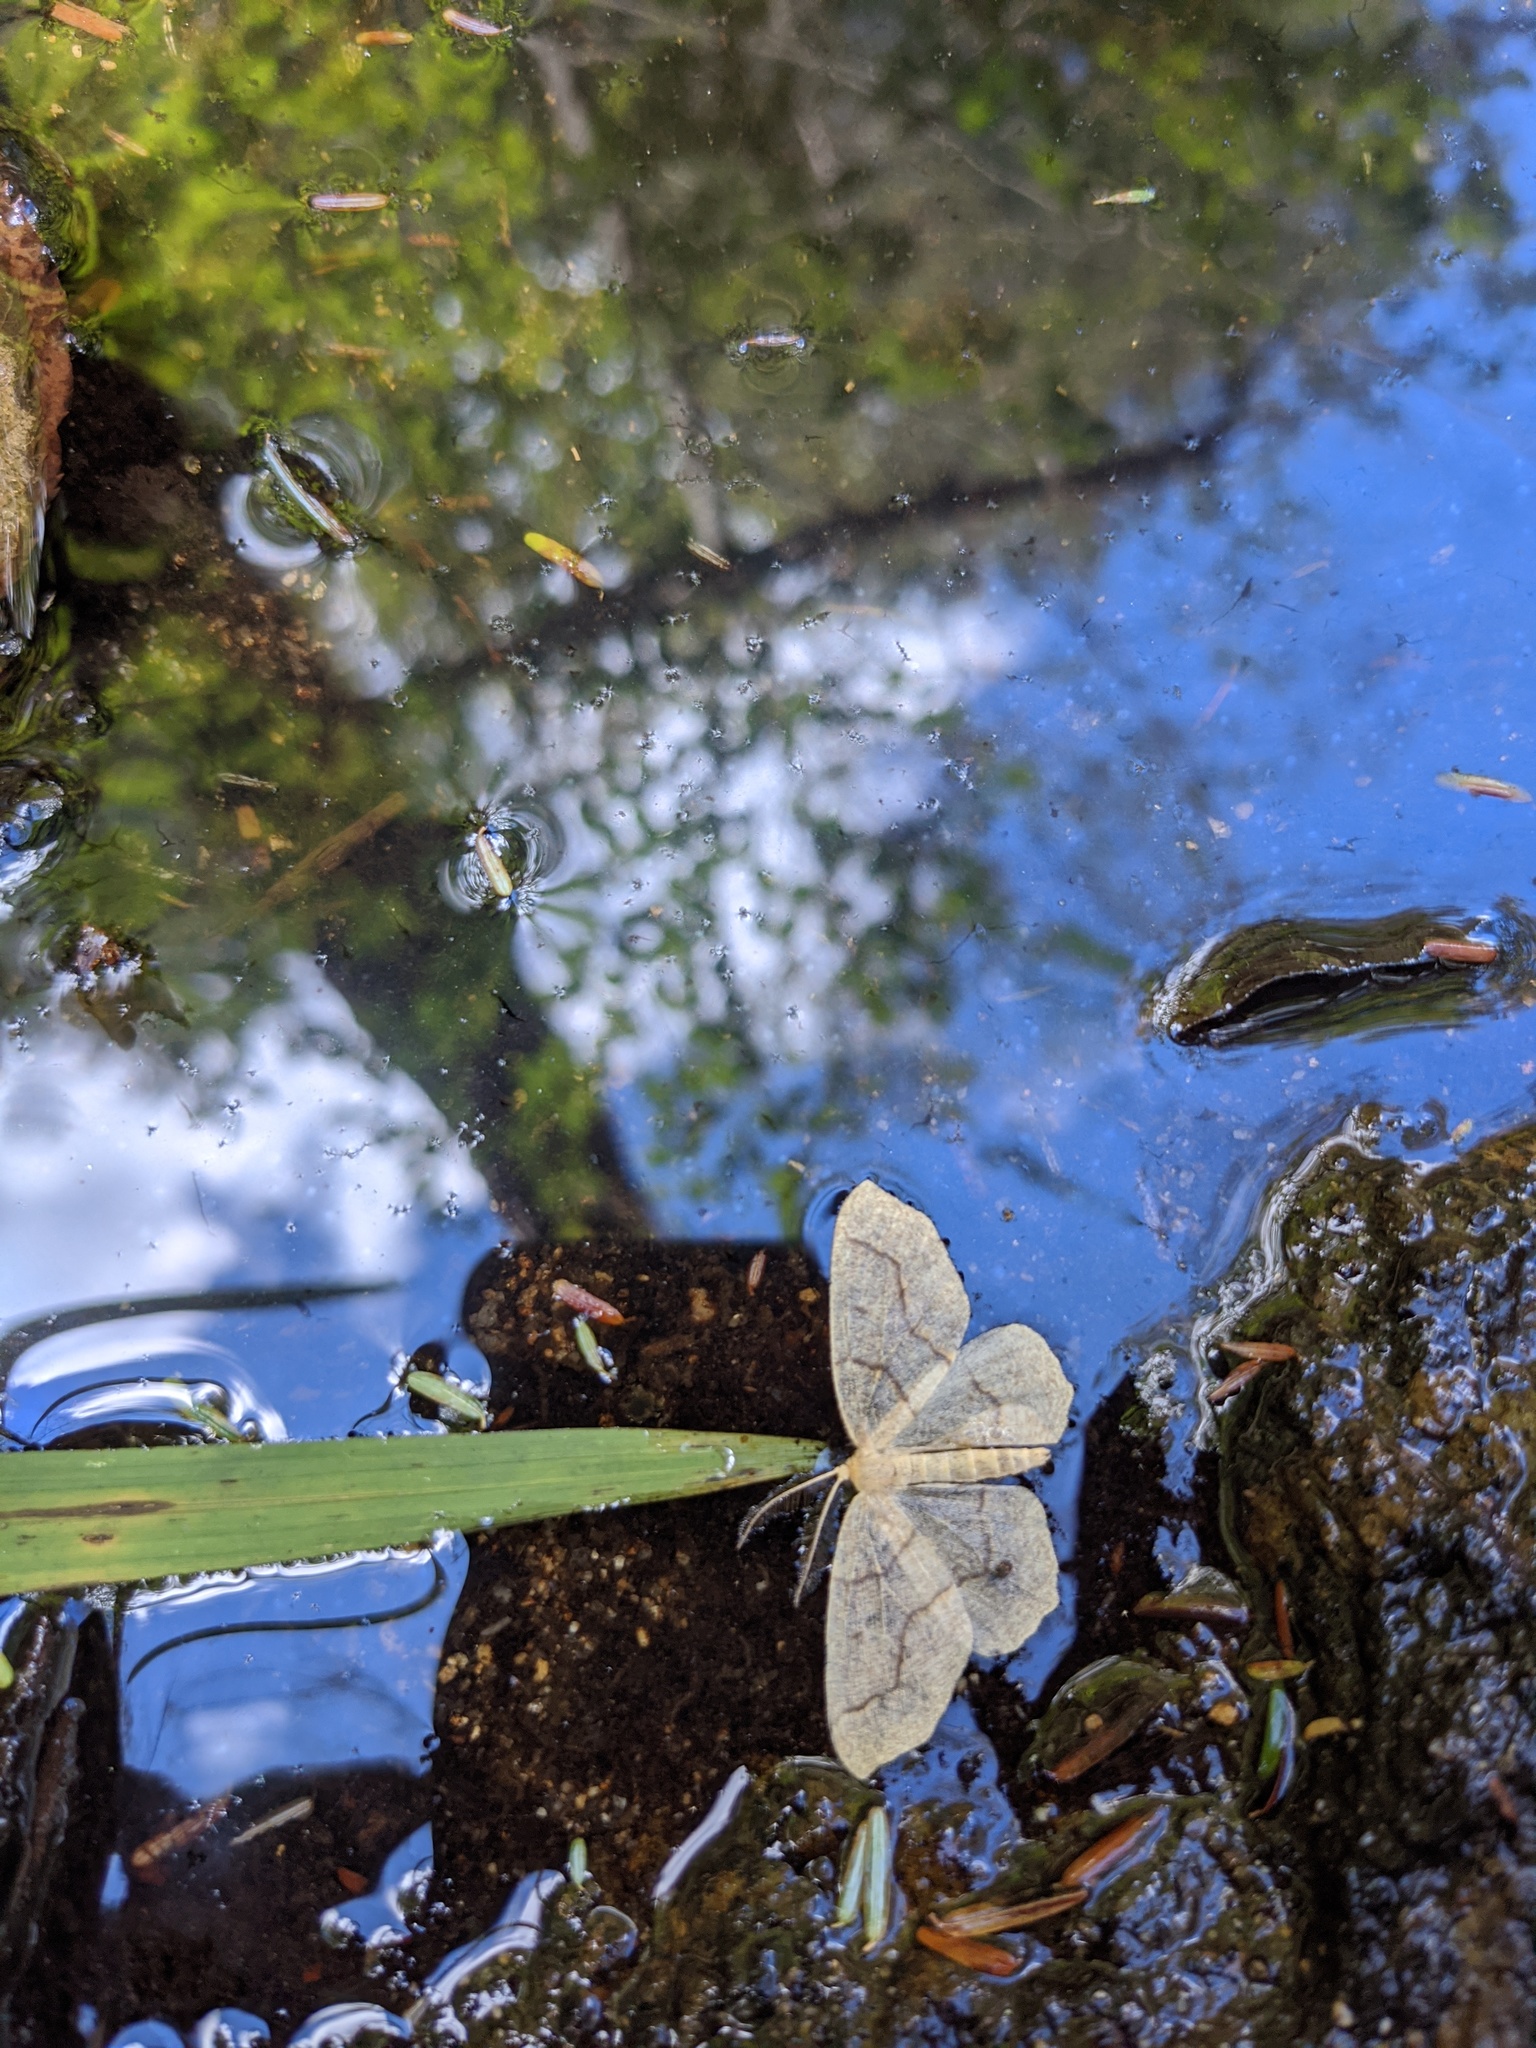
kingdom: Animalia
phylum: Arthropoda
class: Insecta
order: Lepidoptera
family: Geometridae
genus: Lambdina
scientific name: Lambdina fiscellaria
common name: Hemlock looper
